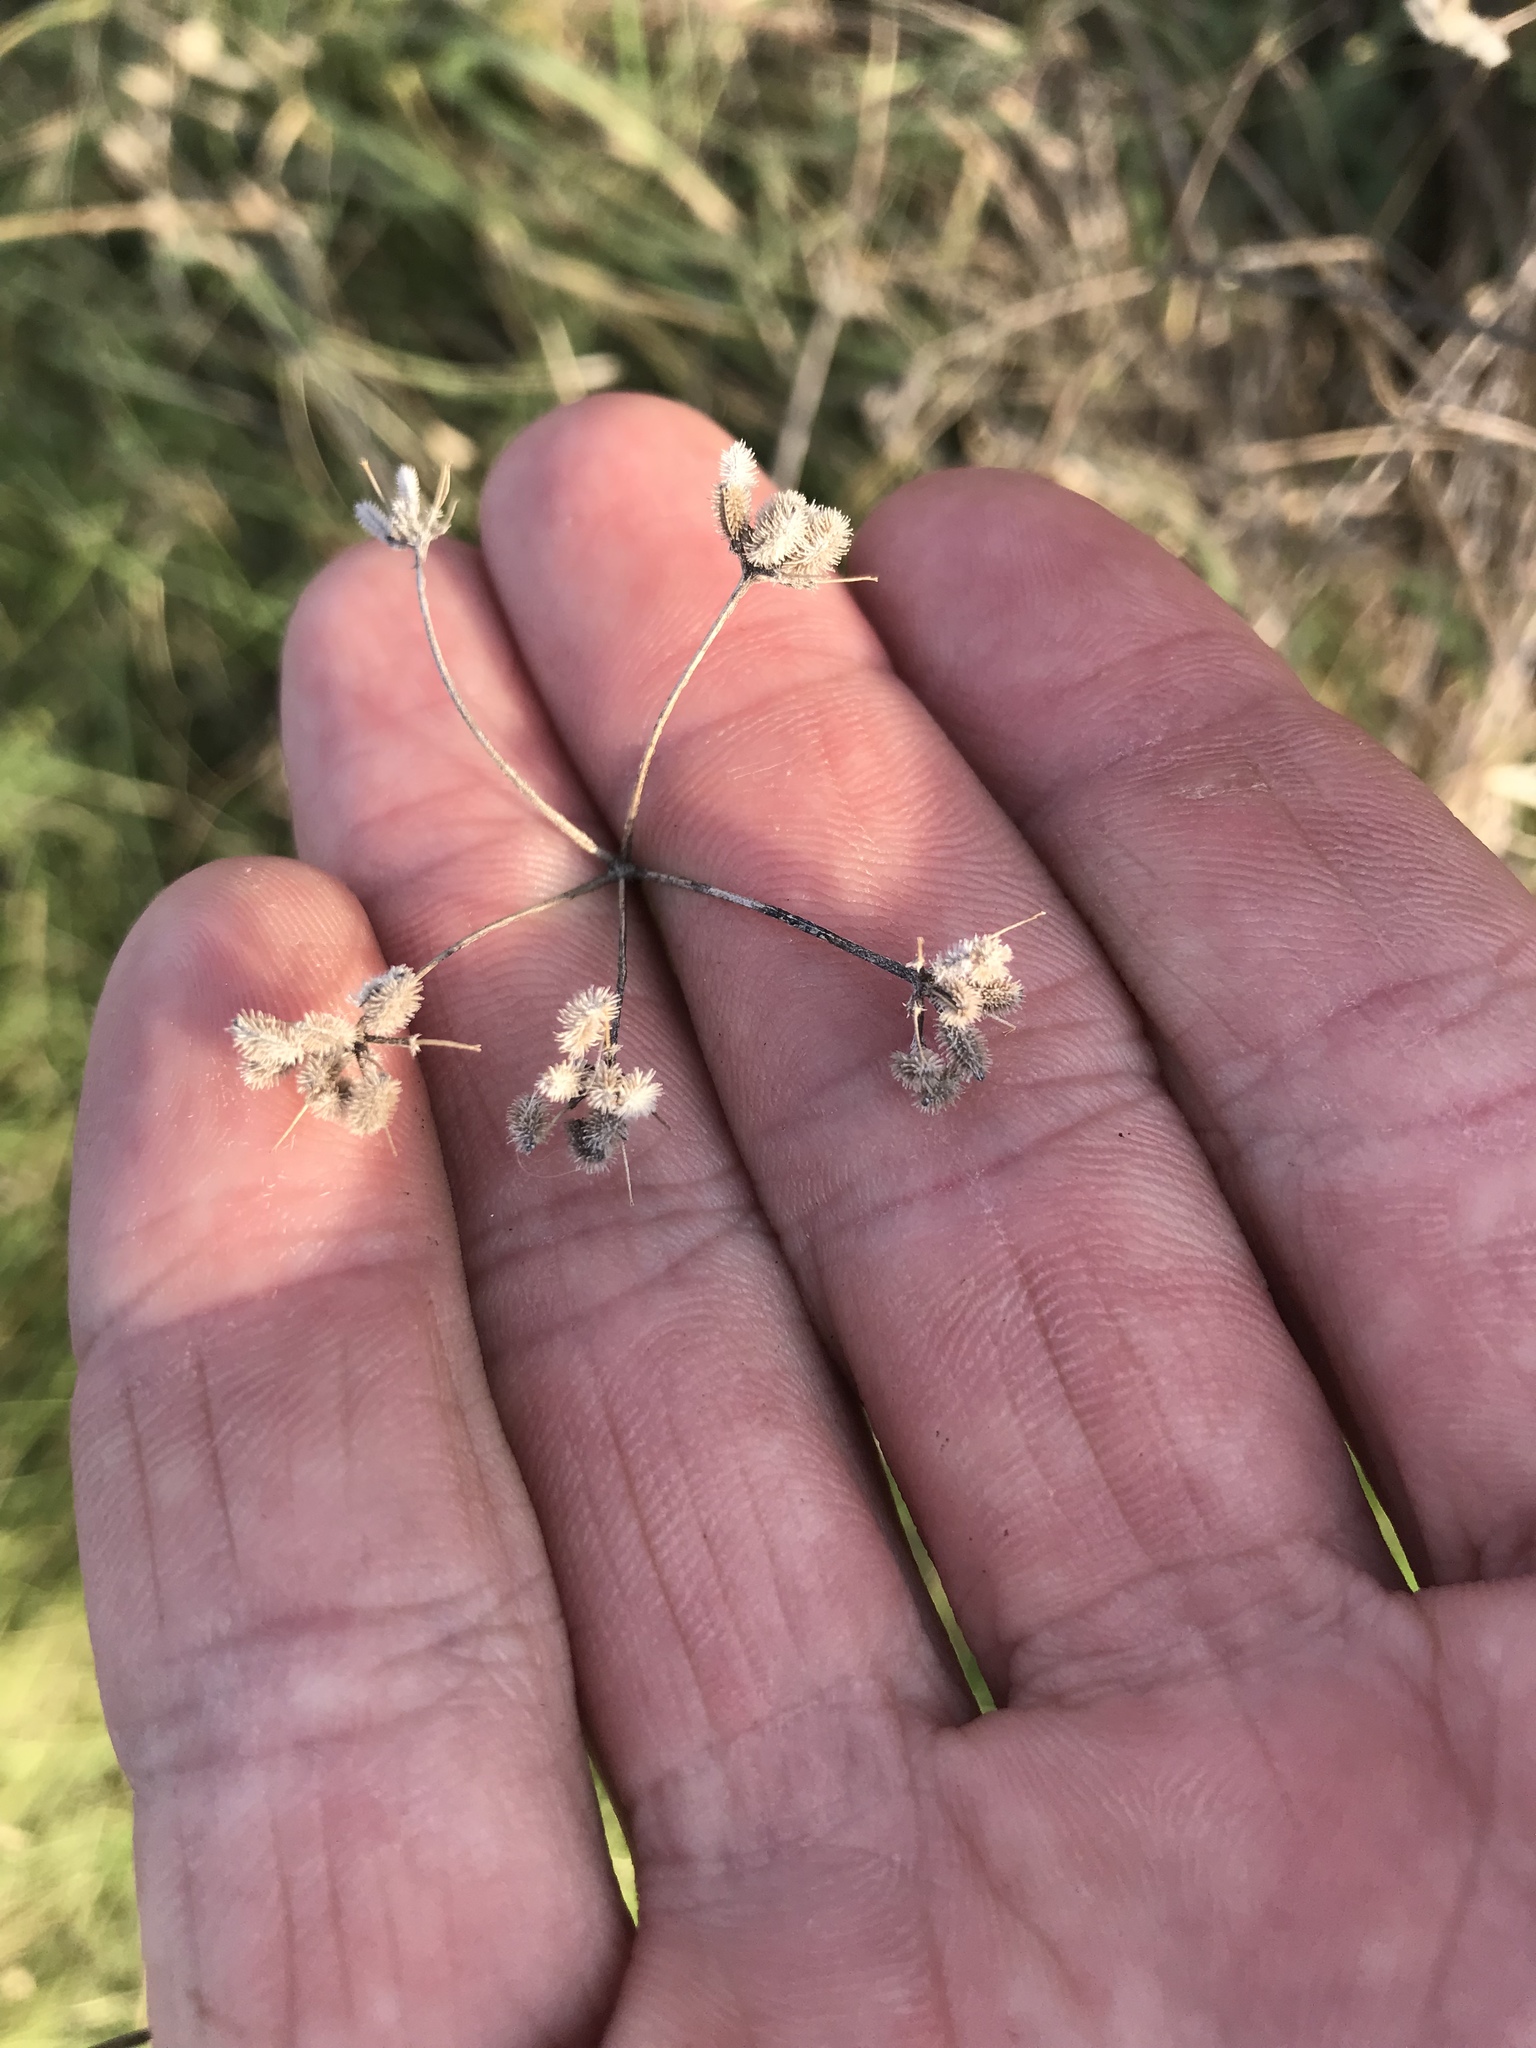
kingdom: Plantae
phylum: Tracheophyta
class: Magnoliopsida
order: Apiales
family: Apiaceae
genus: Torilis
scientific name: Torilis arvensis
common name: Spreading hedge-parsley
